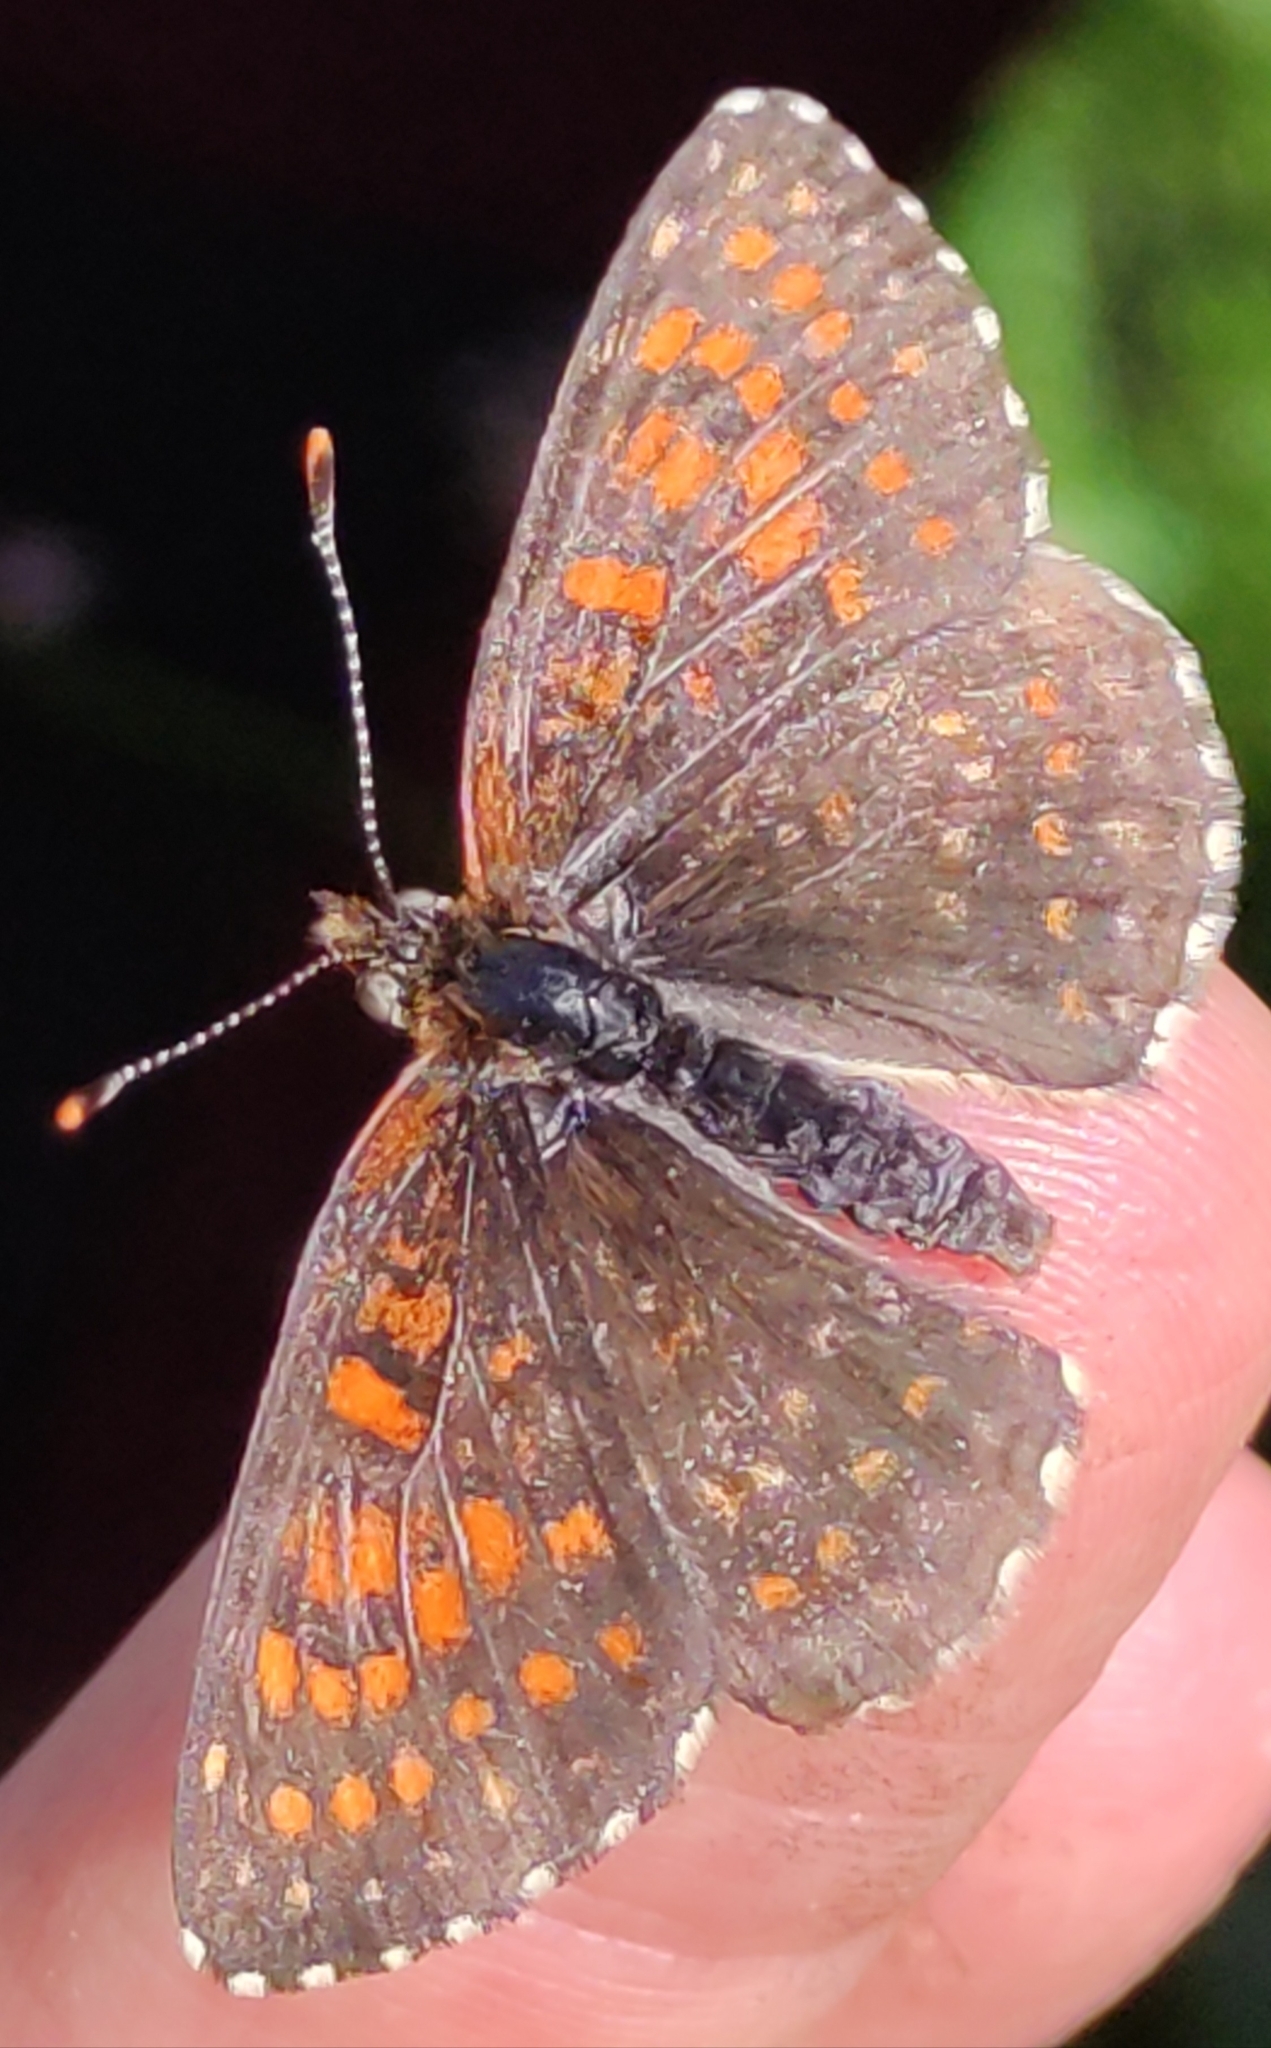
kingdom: Animalia
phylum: Arthropoda
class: Insecta
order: Lepidoptera
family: Nymphalidae
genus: Melitaea
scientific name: Melitaea diamina
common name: False heath fritillary
